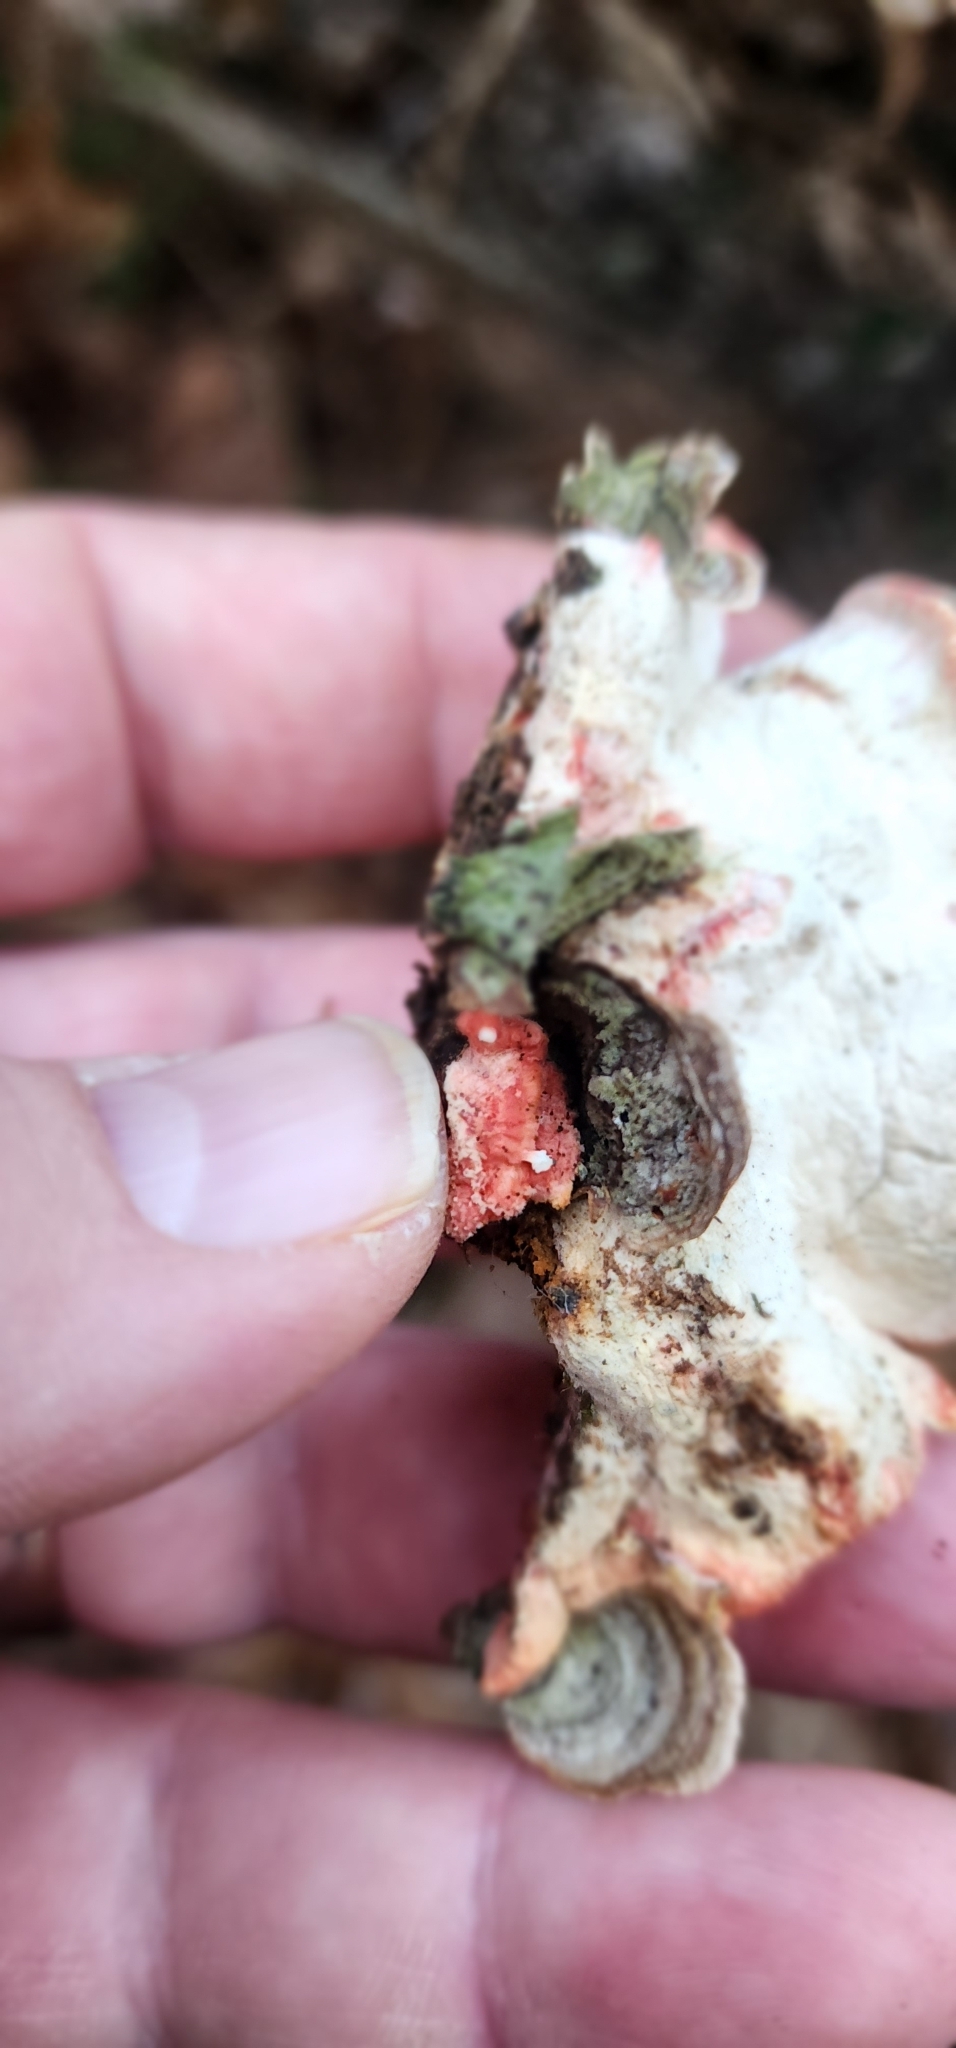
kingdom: Fungi
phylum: Basidiomycota
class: Agaricomycetes
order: Polyporales
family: Irpicaceae
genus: Byssomerulius
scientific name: Byssomerulius incarnatus
